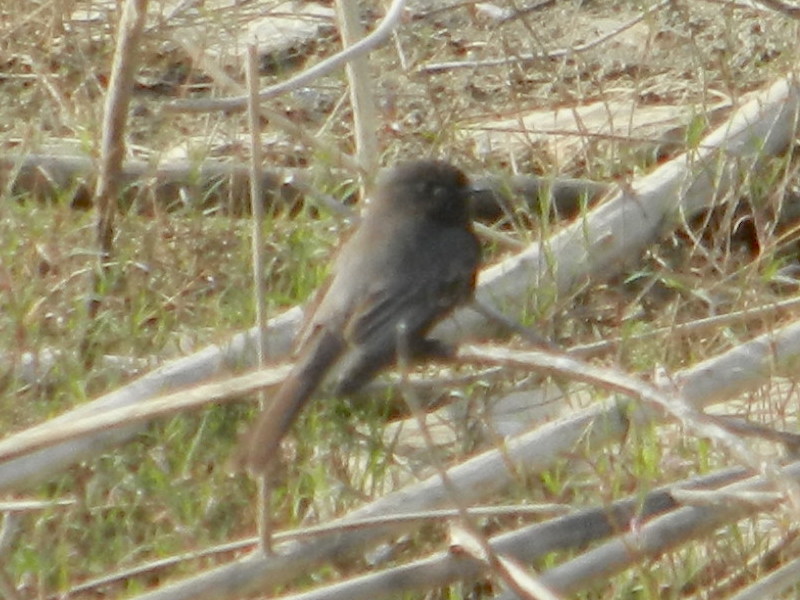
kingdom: Animalia
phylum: Chordata
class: Aves
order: Passeriformes
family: Tyrannidae
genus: Sayornis
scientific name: Sayornis nigricans
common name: Black phoebe
